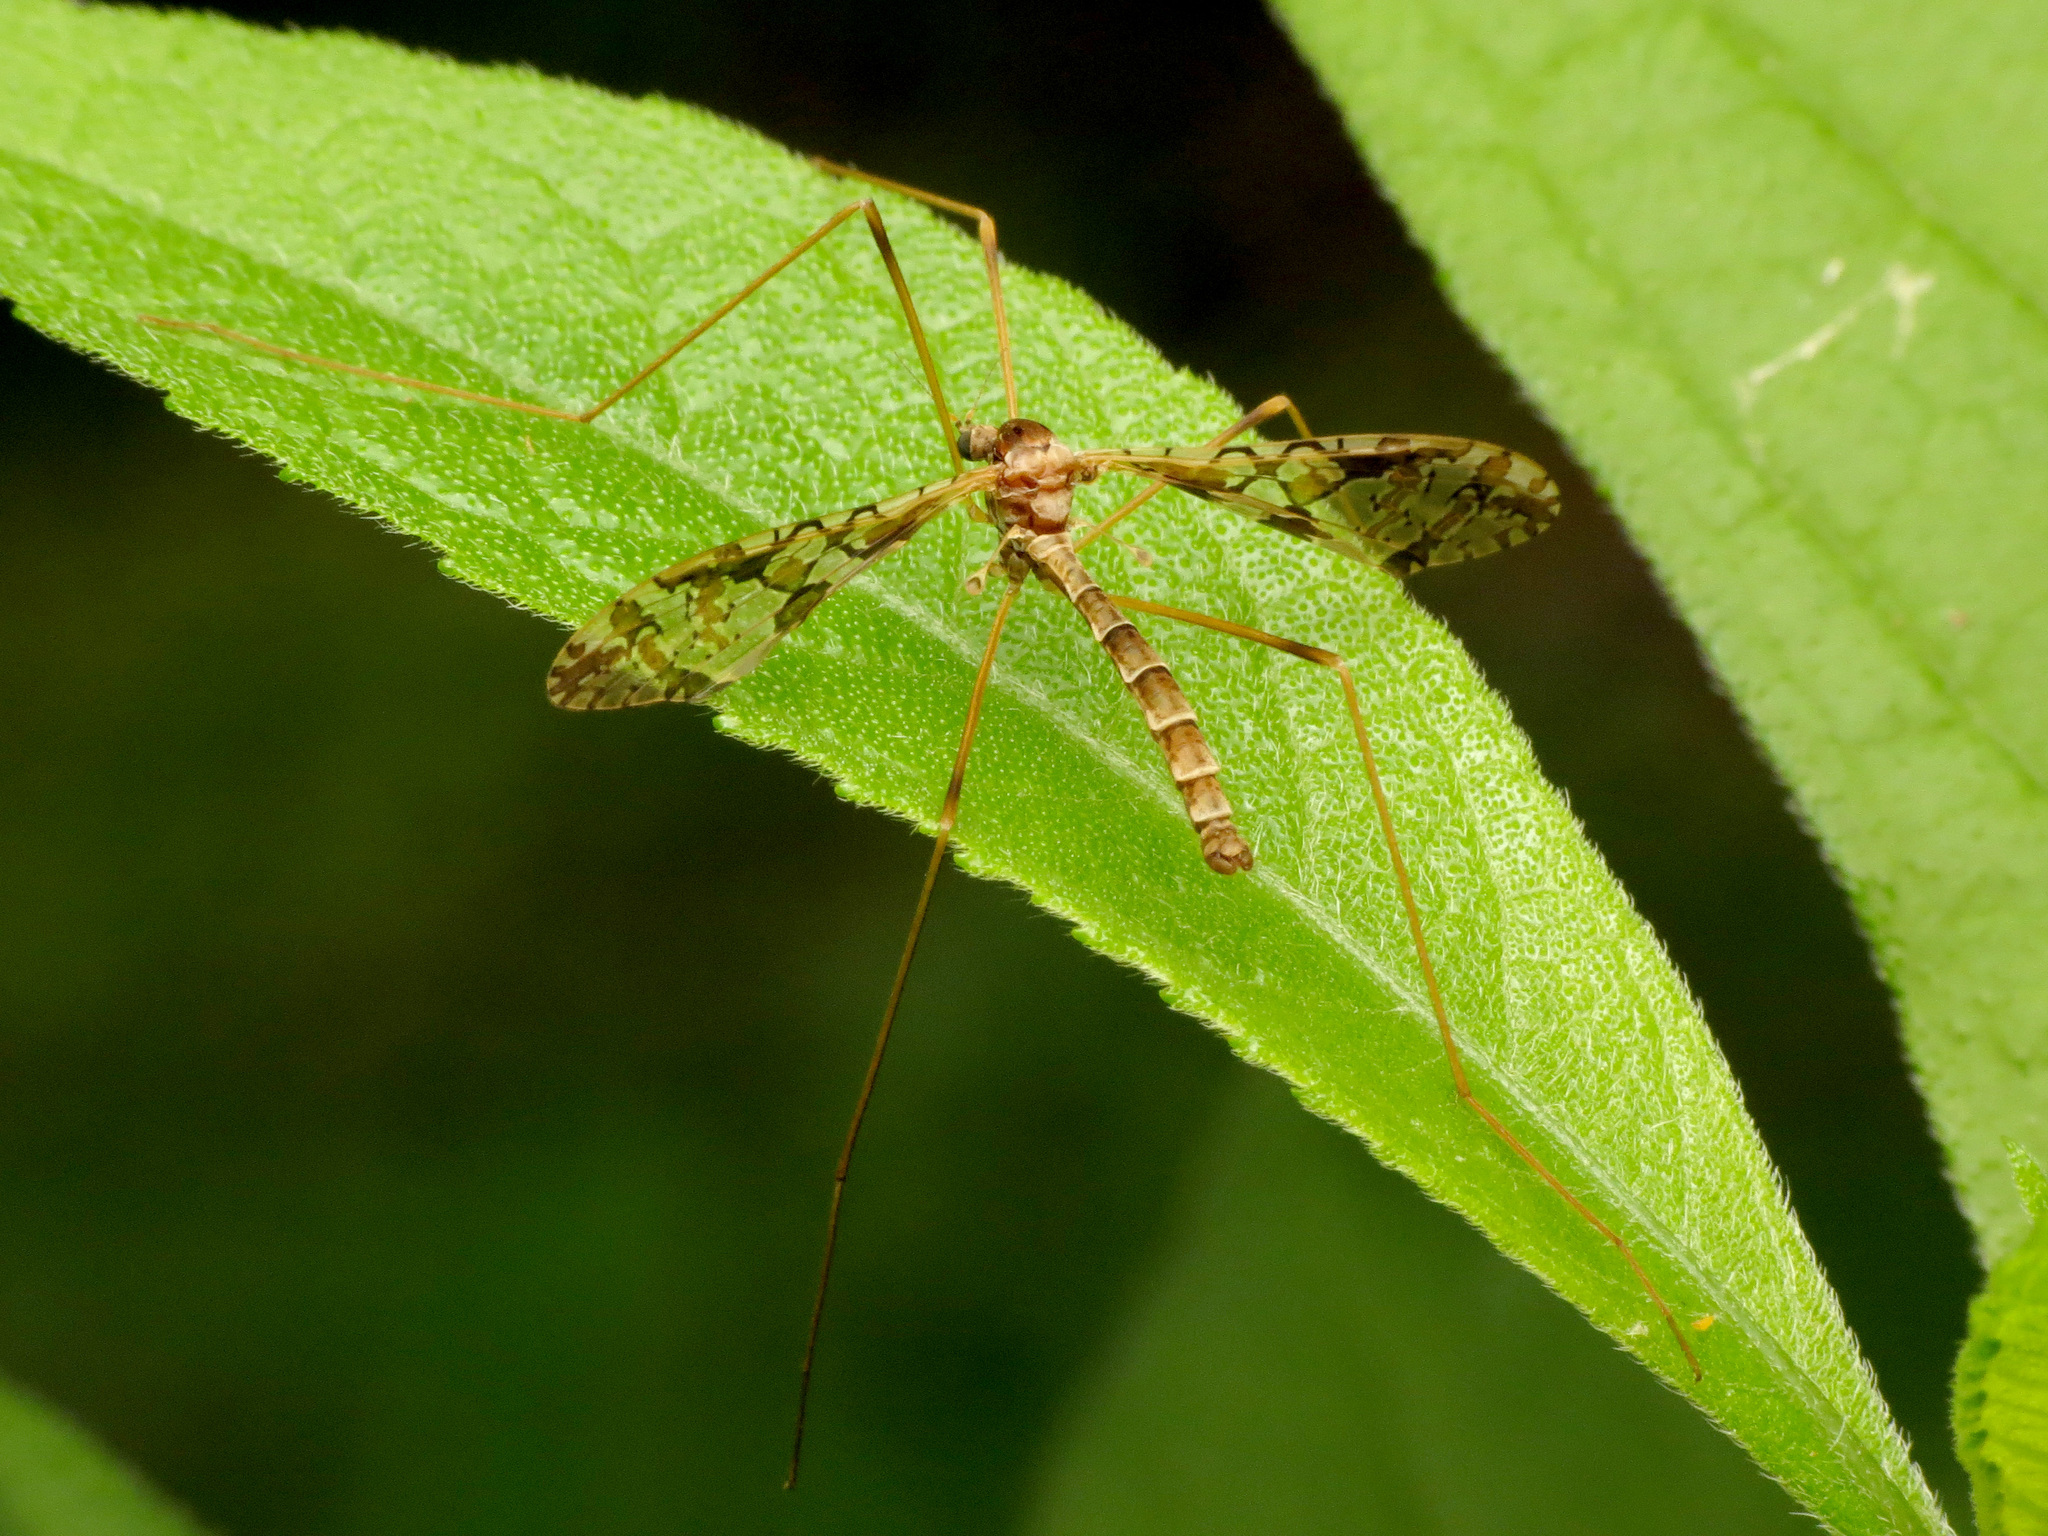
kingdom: Animalia
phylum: Arthropoda
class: Insecta
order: Diptera
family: Limoniidae
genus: Epiphragma
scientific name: Epiphragma solatrix
